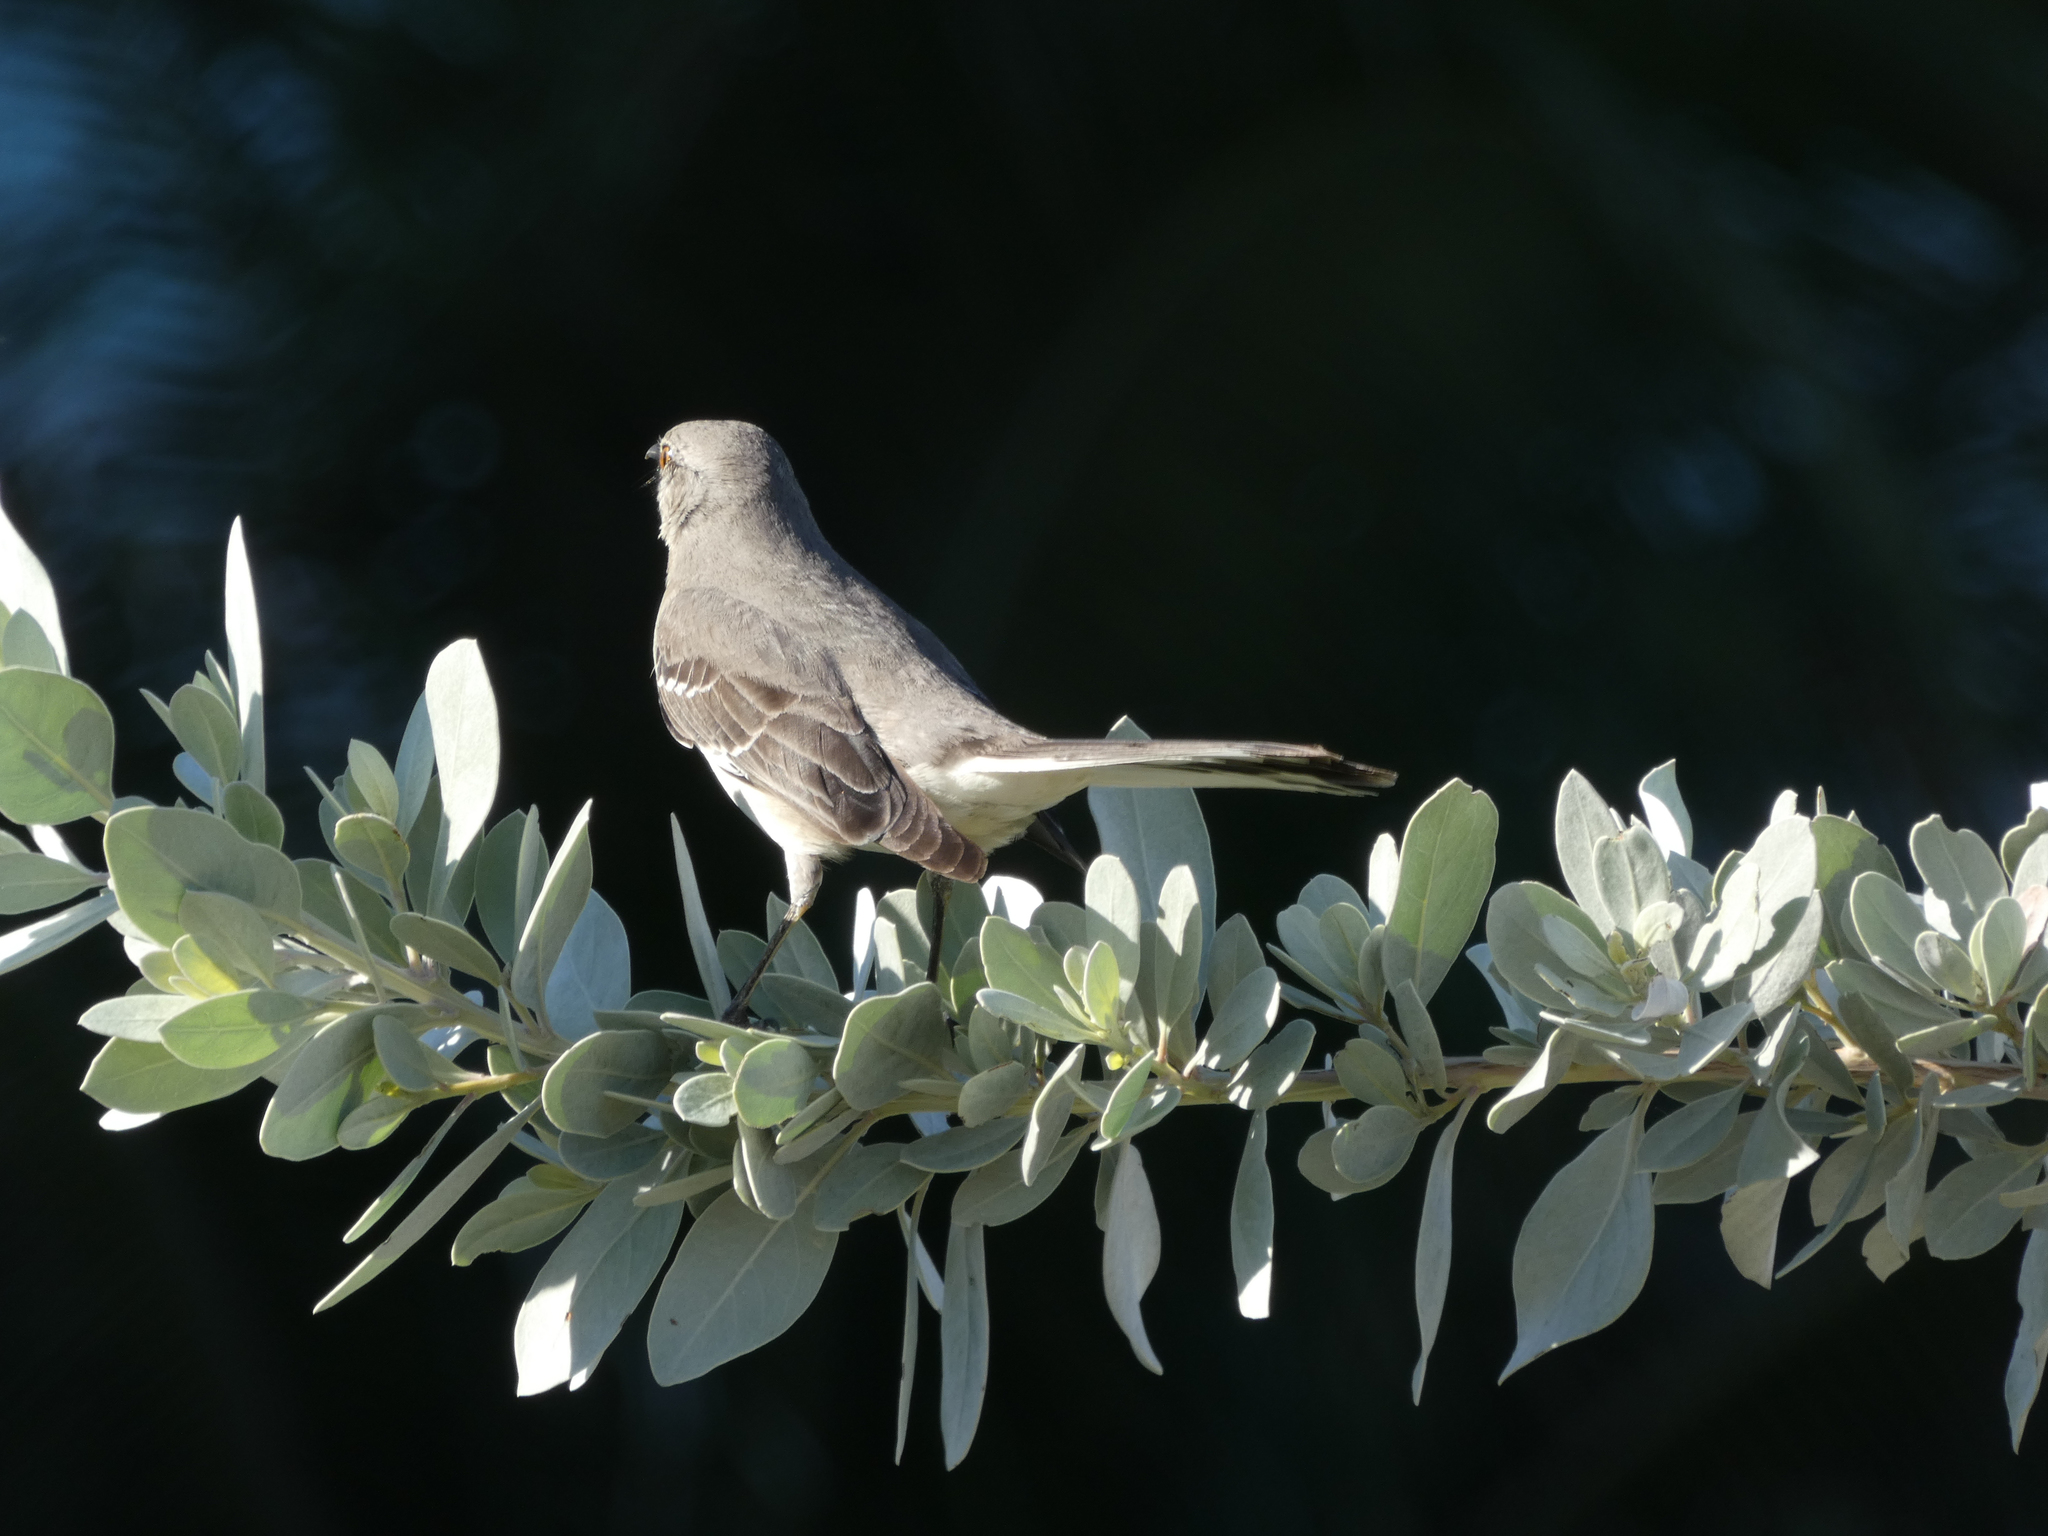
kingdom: Animalia
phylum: Chordata
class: Aves
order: Passeriformes
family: Mimidae
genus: Mimus
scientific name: Mimus polyglottos
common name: Northern mockingbird
